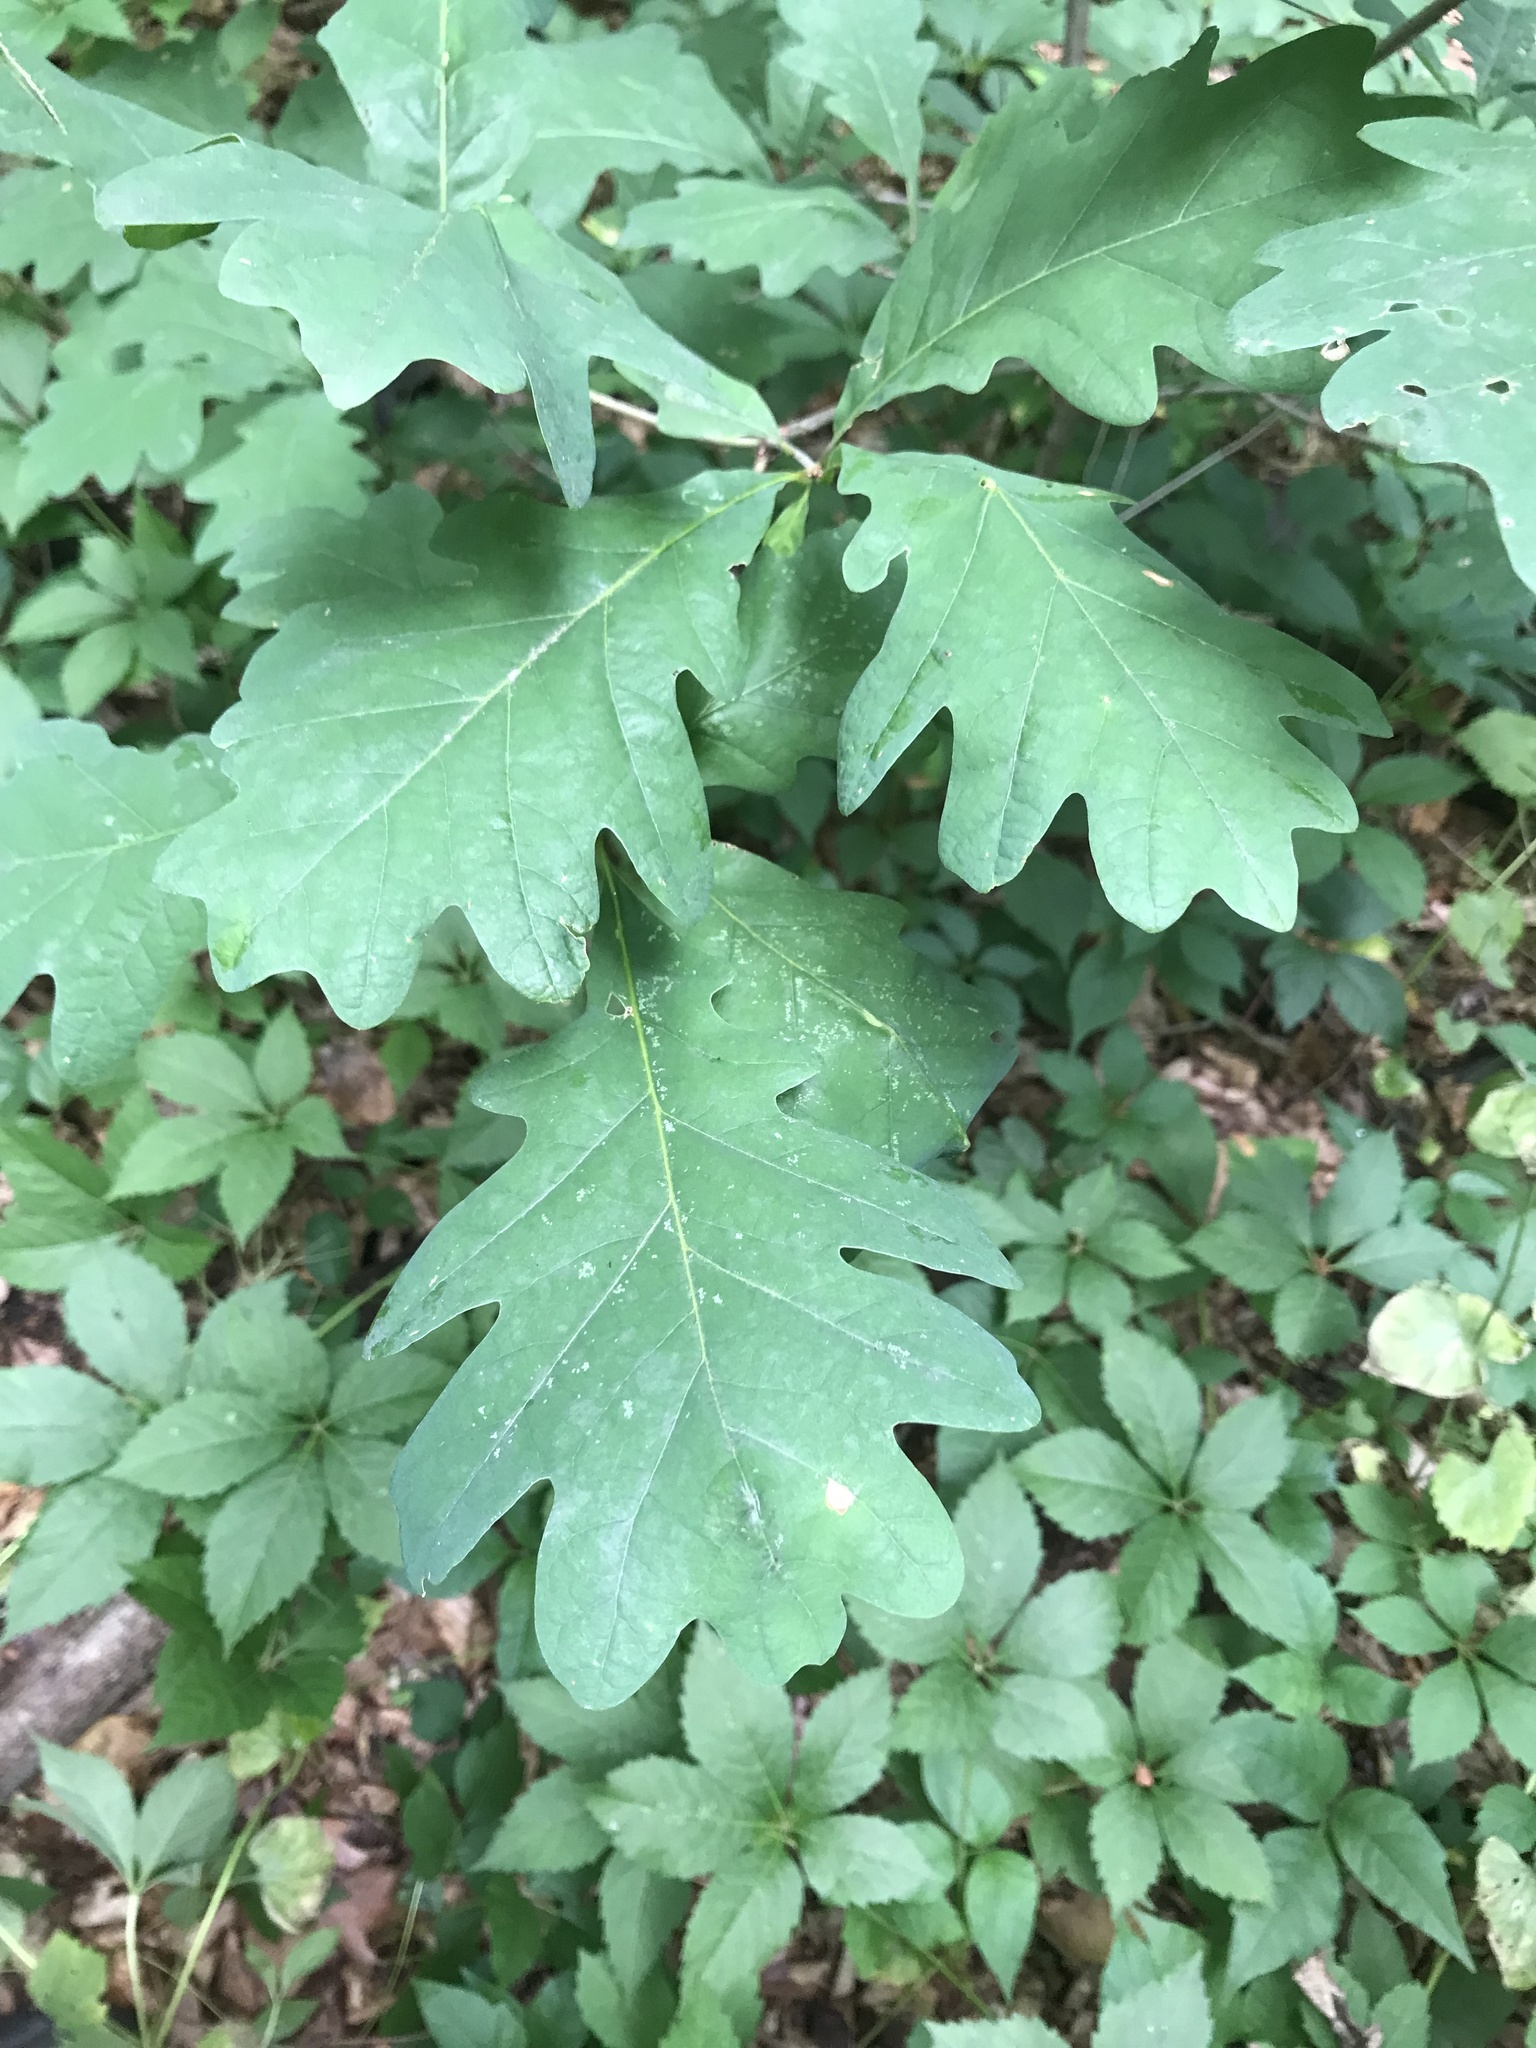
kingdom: Plantae
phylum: Tracheophyta
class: Magnoliopsida
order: Fagales
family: Fagaceae
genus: Quercus
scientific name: Quercus alba
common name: White oak
